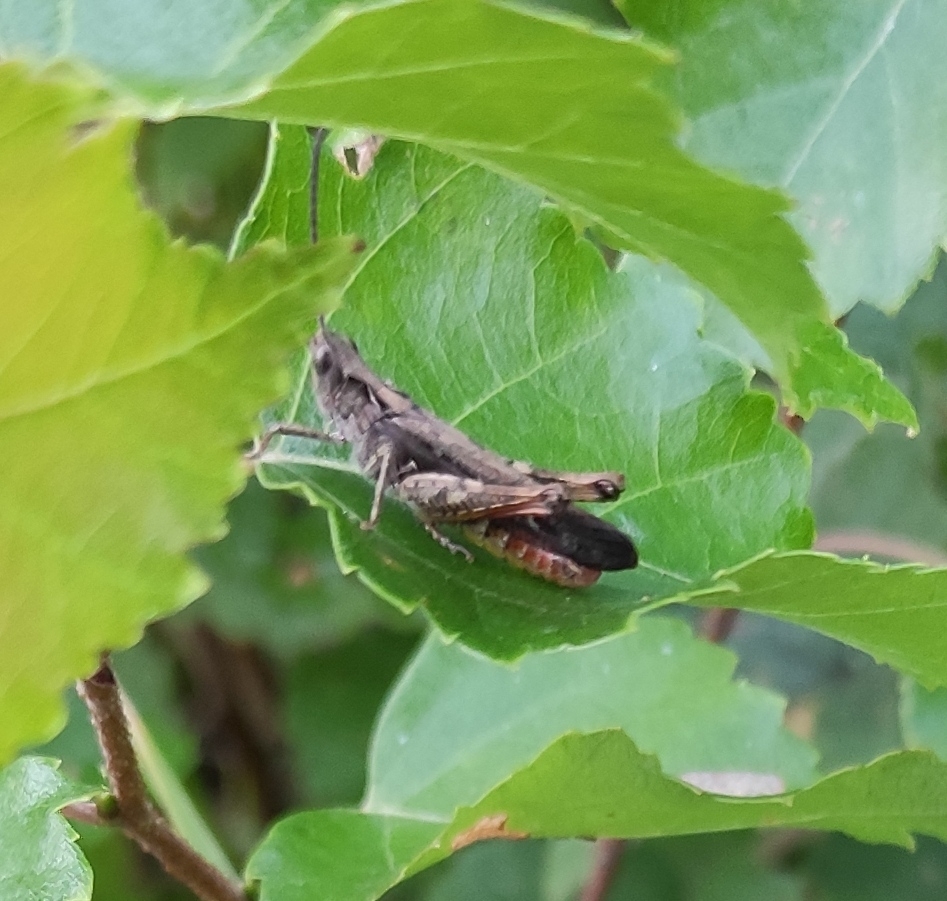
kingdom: Animalia
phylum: Arthropoda
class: Insecta
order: Orthoptera
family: Acrididae
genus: Chorthippus
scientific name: Chorthippus brunneus
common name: Field grasshopper
